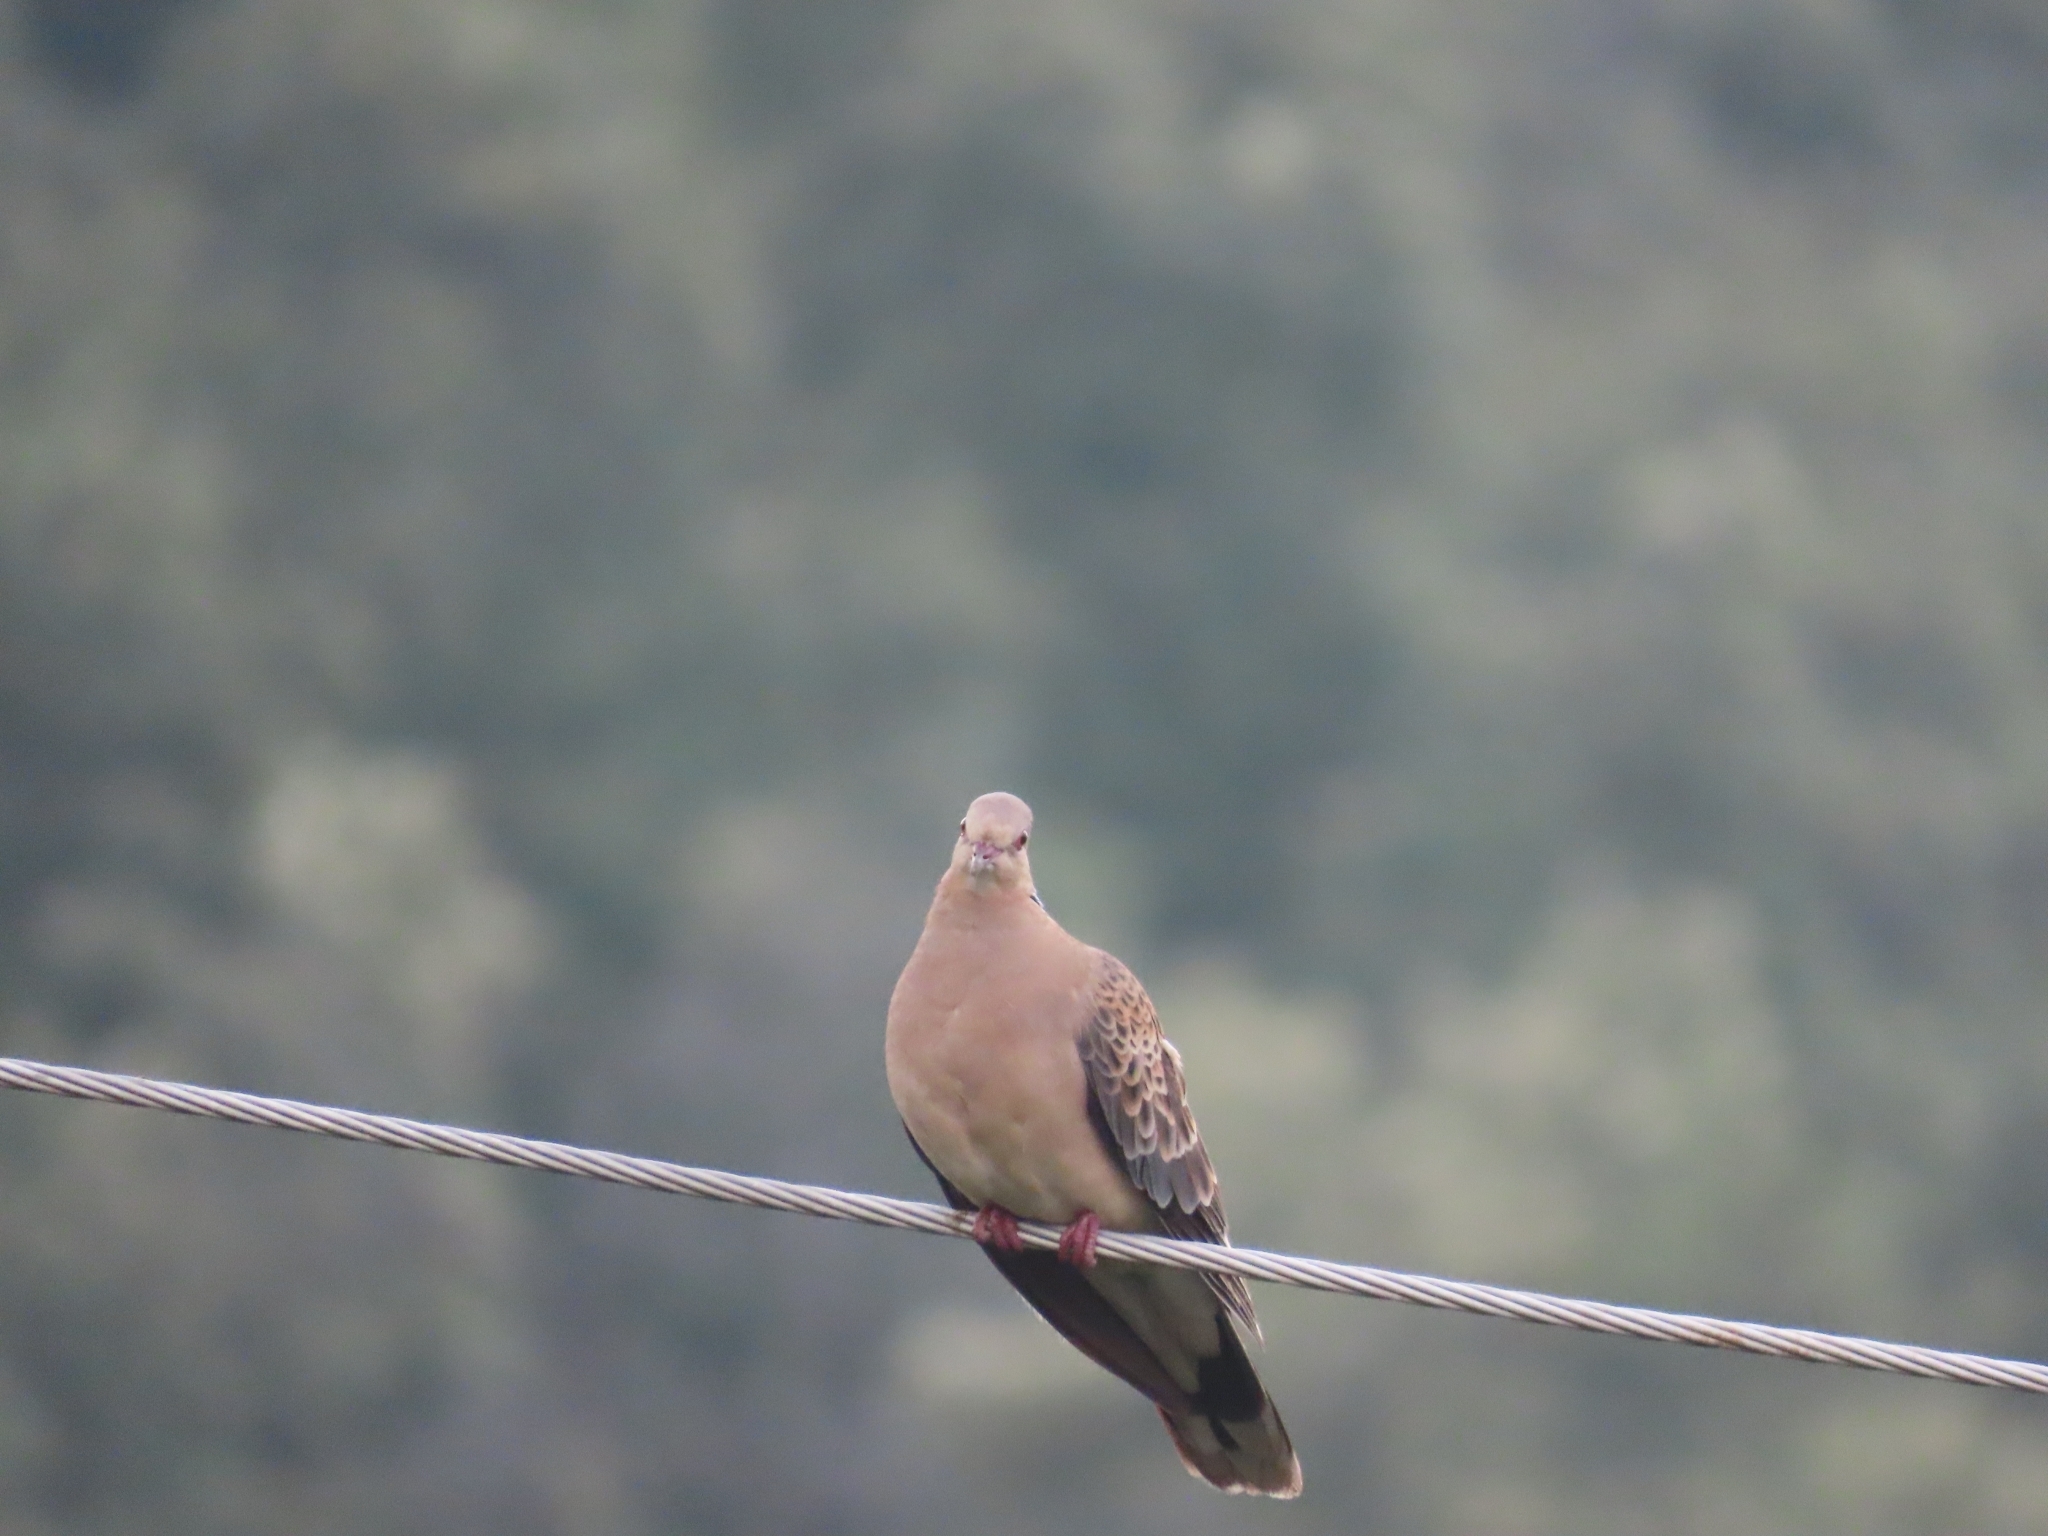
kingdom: Animalia
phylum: Chordata
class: Aves
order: Columbiformes
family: Columbidae
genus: Streptopelia
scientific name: Streptopelia orientalis
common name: Oriental turtle dove
